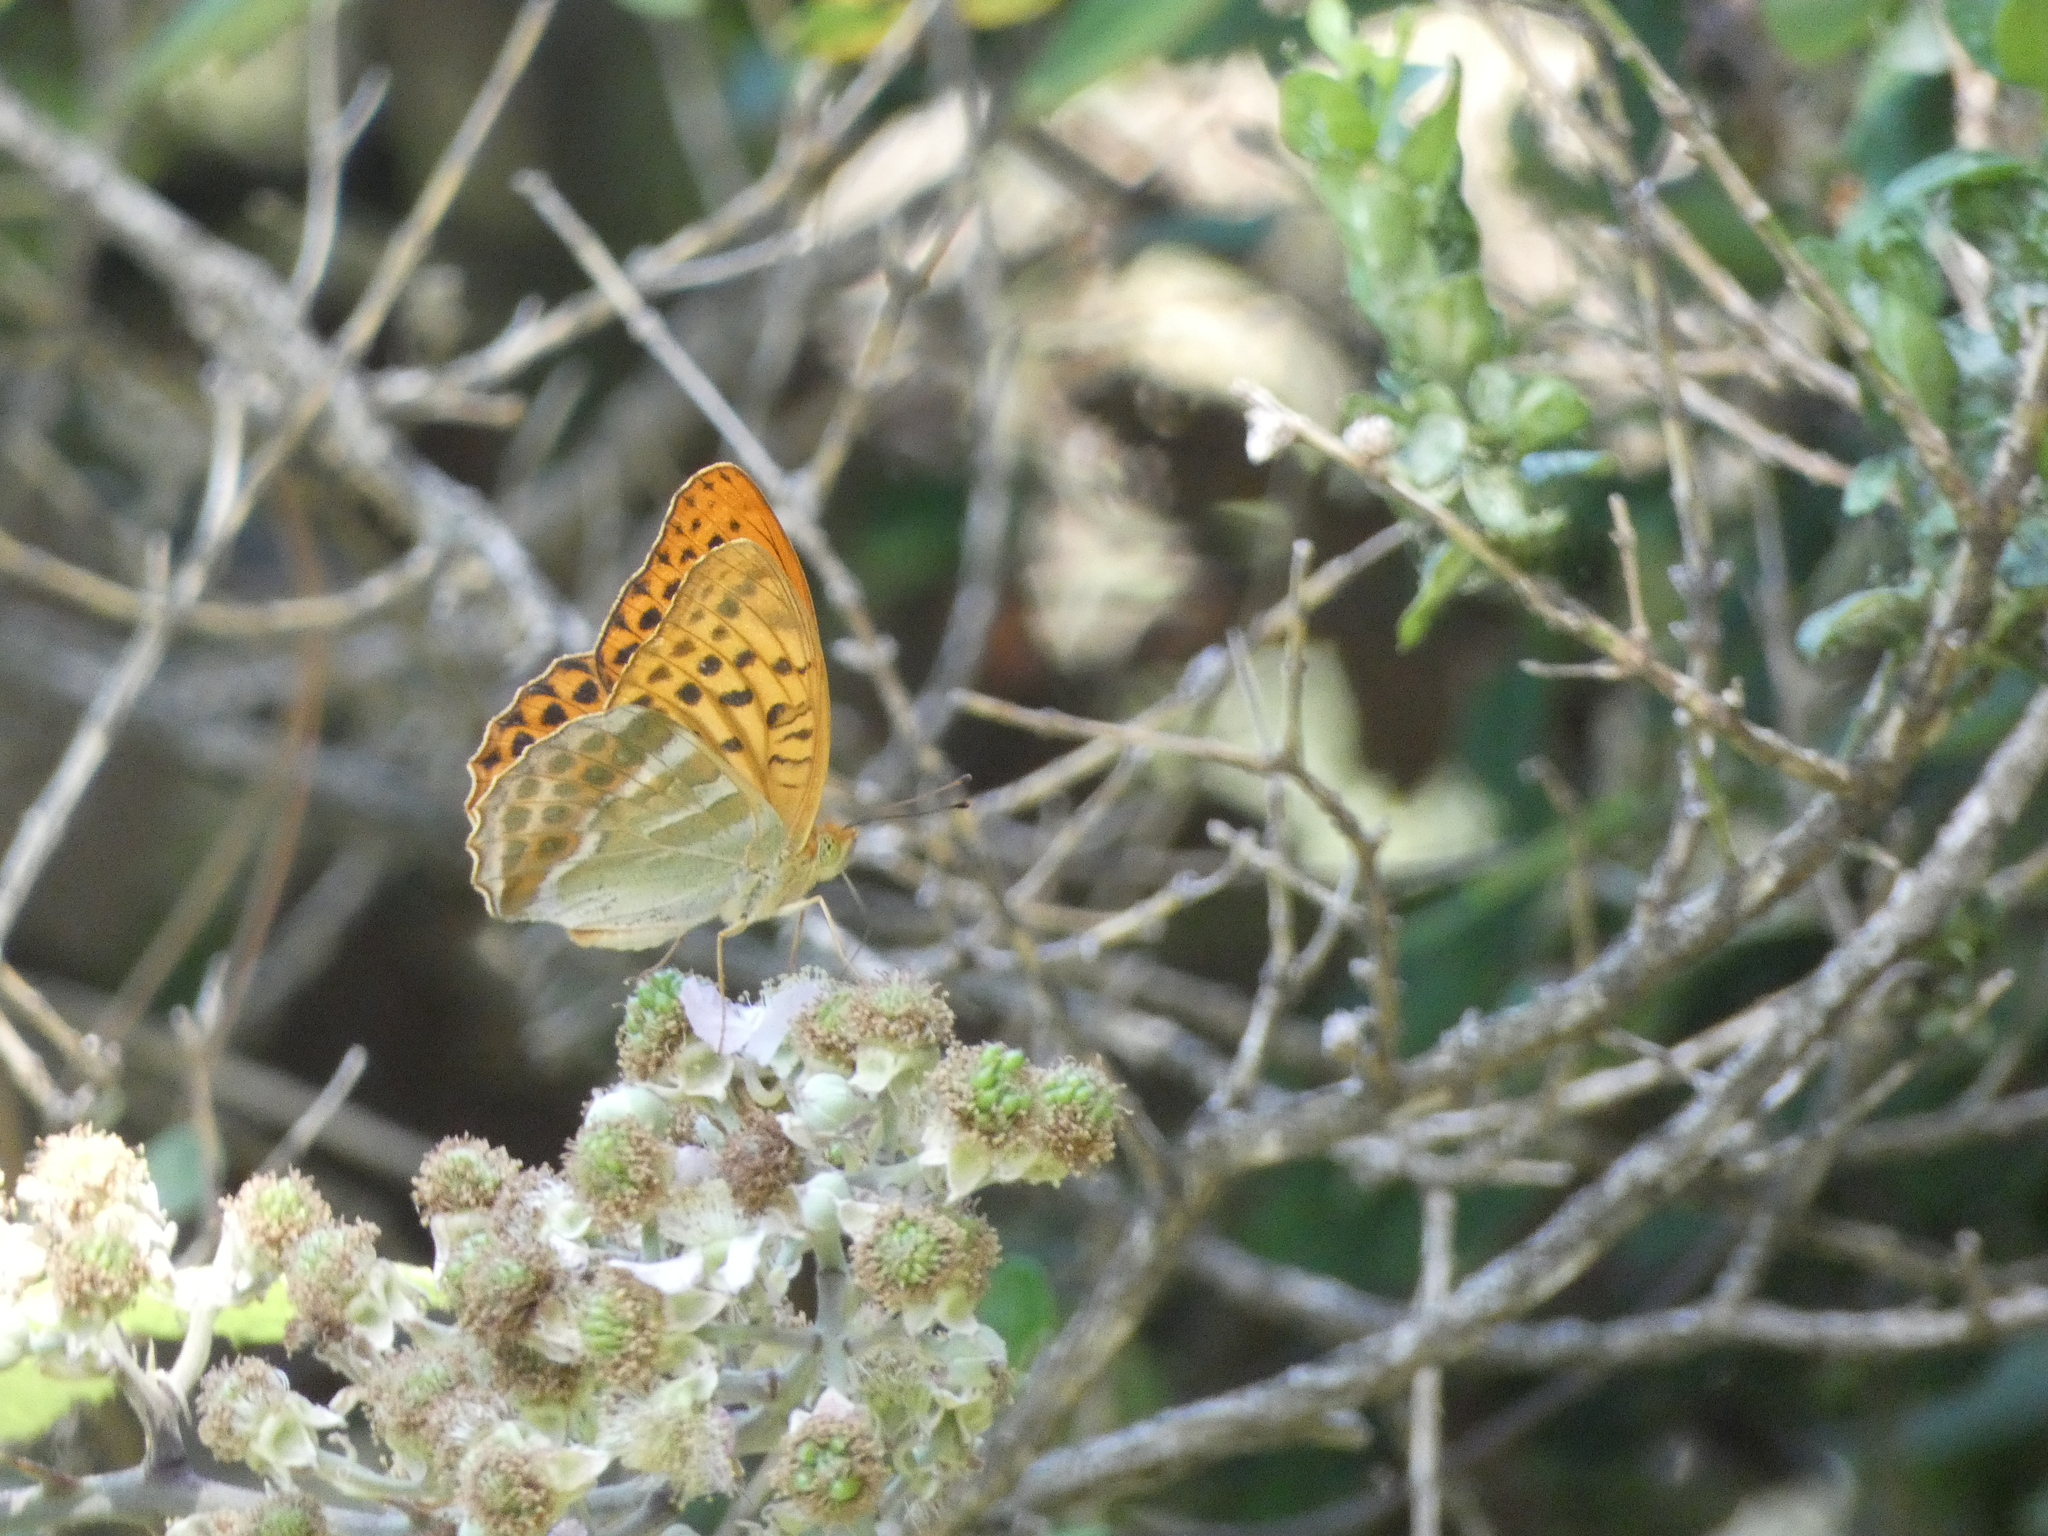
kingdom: Animalia
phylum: Arthropoda
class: Insecta
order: Lepidoptera
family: Nymphalidae
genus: Argynnis
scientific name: Argynnis paphia
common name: Silver-washed fritillary
